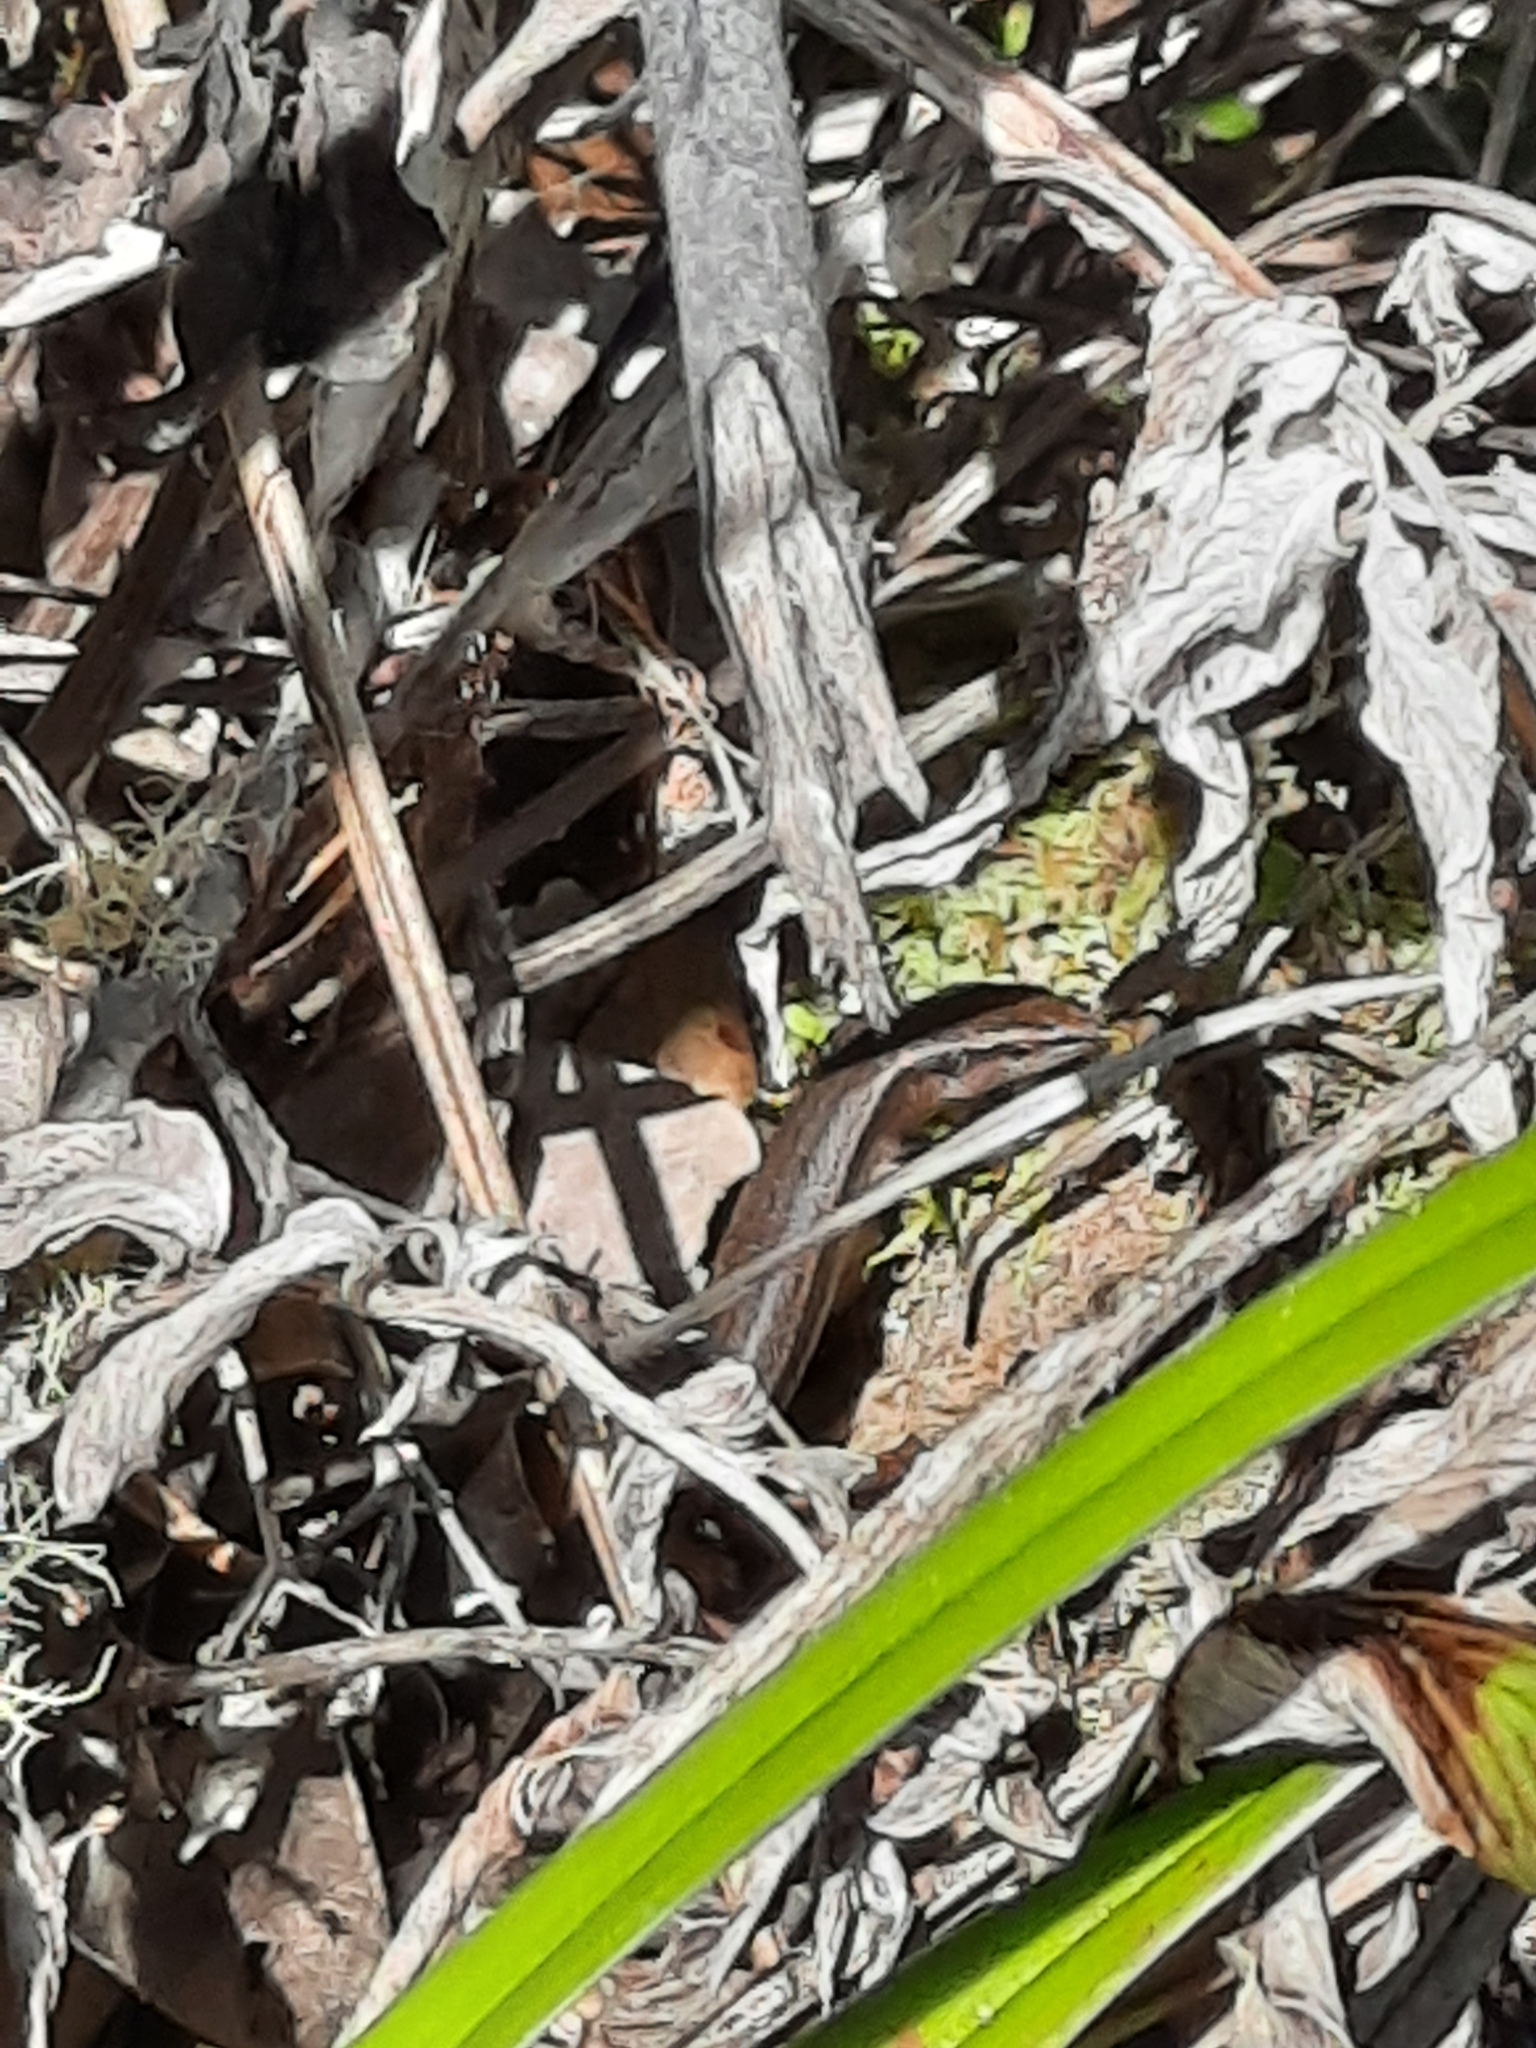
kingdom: Animalia
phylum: Chordata
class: Squamata
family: Scincidae
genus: Lampropholis
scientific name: Lampropholis delicata
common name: Plague skink
